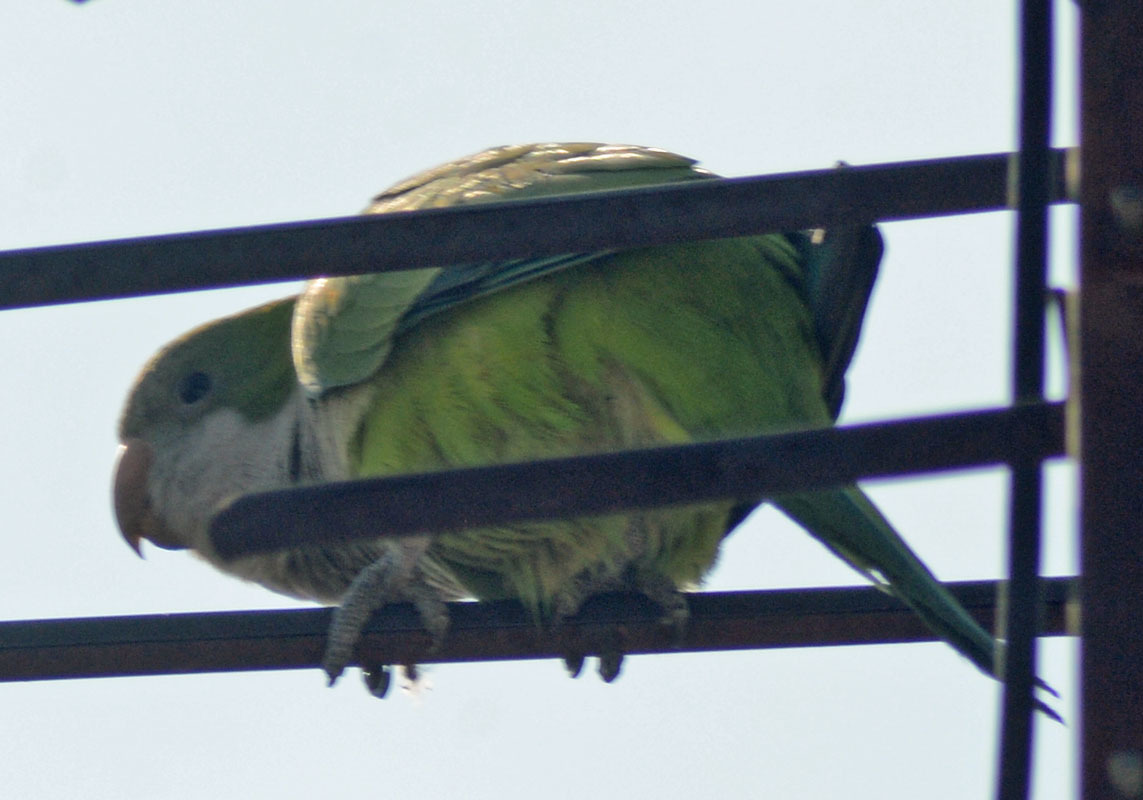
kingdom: Animalia
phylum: Chordata
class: Aves
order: Psittaciformes
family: Psittacidae
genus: Myiopsitta
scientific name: Myiopsitta monachus
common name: Monk parakeet
